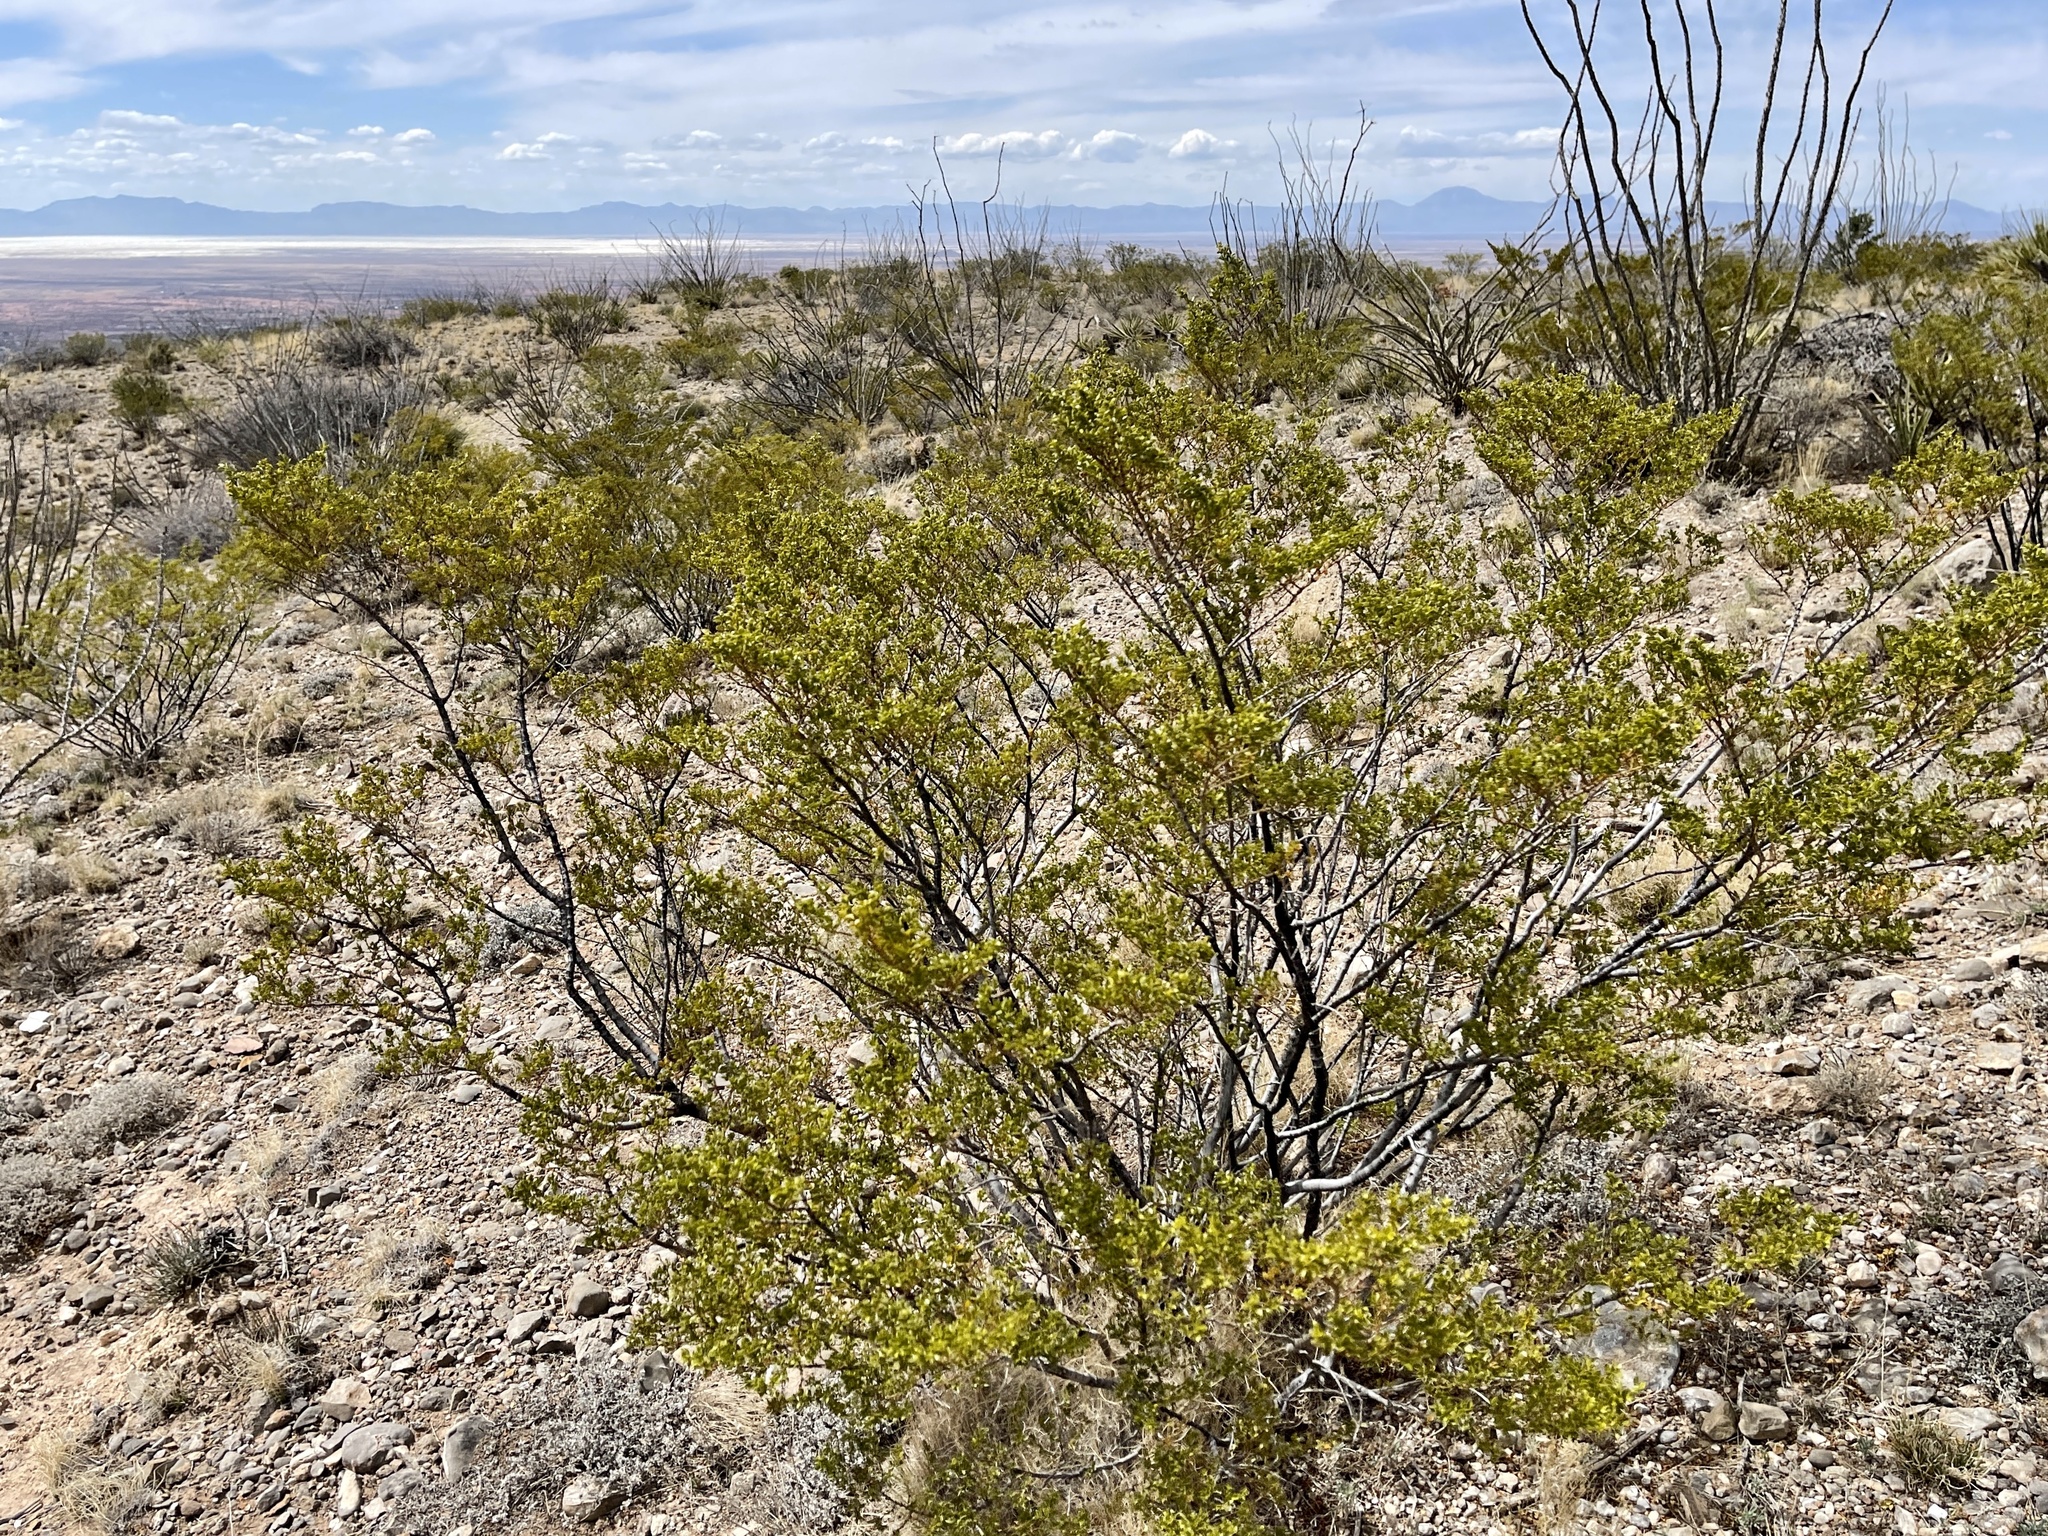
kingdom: Plantae
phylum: Tracheophyta
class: Magnoliopsida
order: Zygophyllales
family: Zygophyllaceae
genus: Larrea
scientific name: Larrea tridentata
